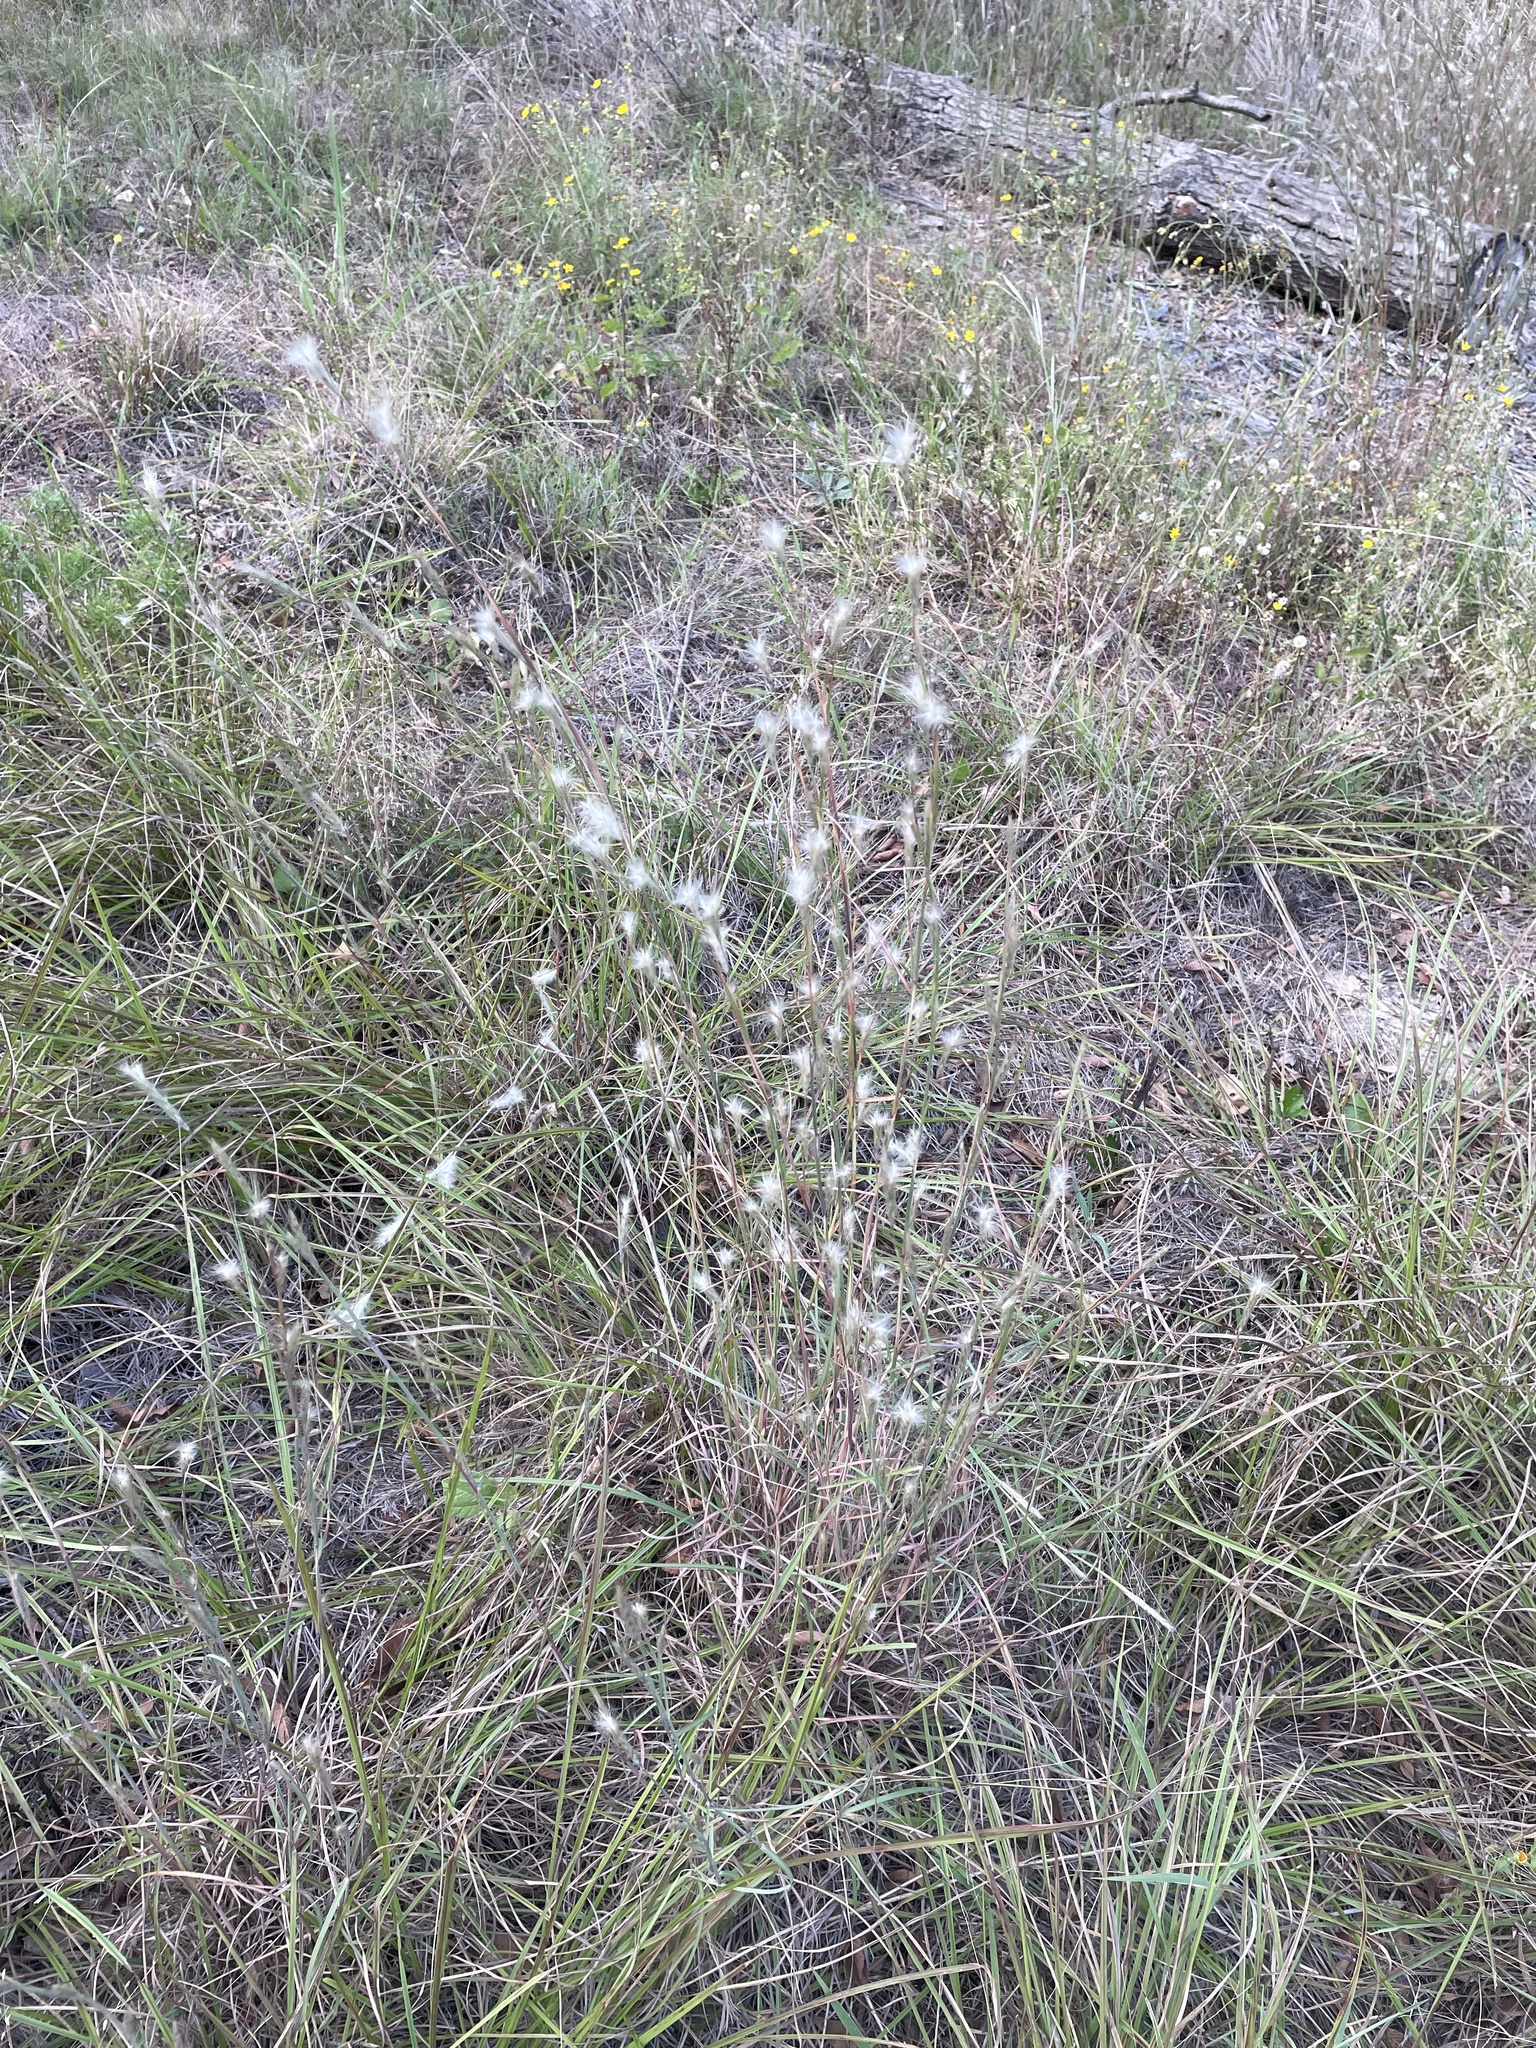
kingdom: Plantae
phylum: Tracheophyta
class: Liliopsida
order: Poales
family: Poaceae
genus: Andropogon
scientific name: Andropogon ternarius
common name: Split bluestem
